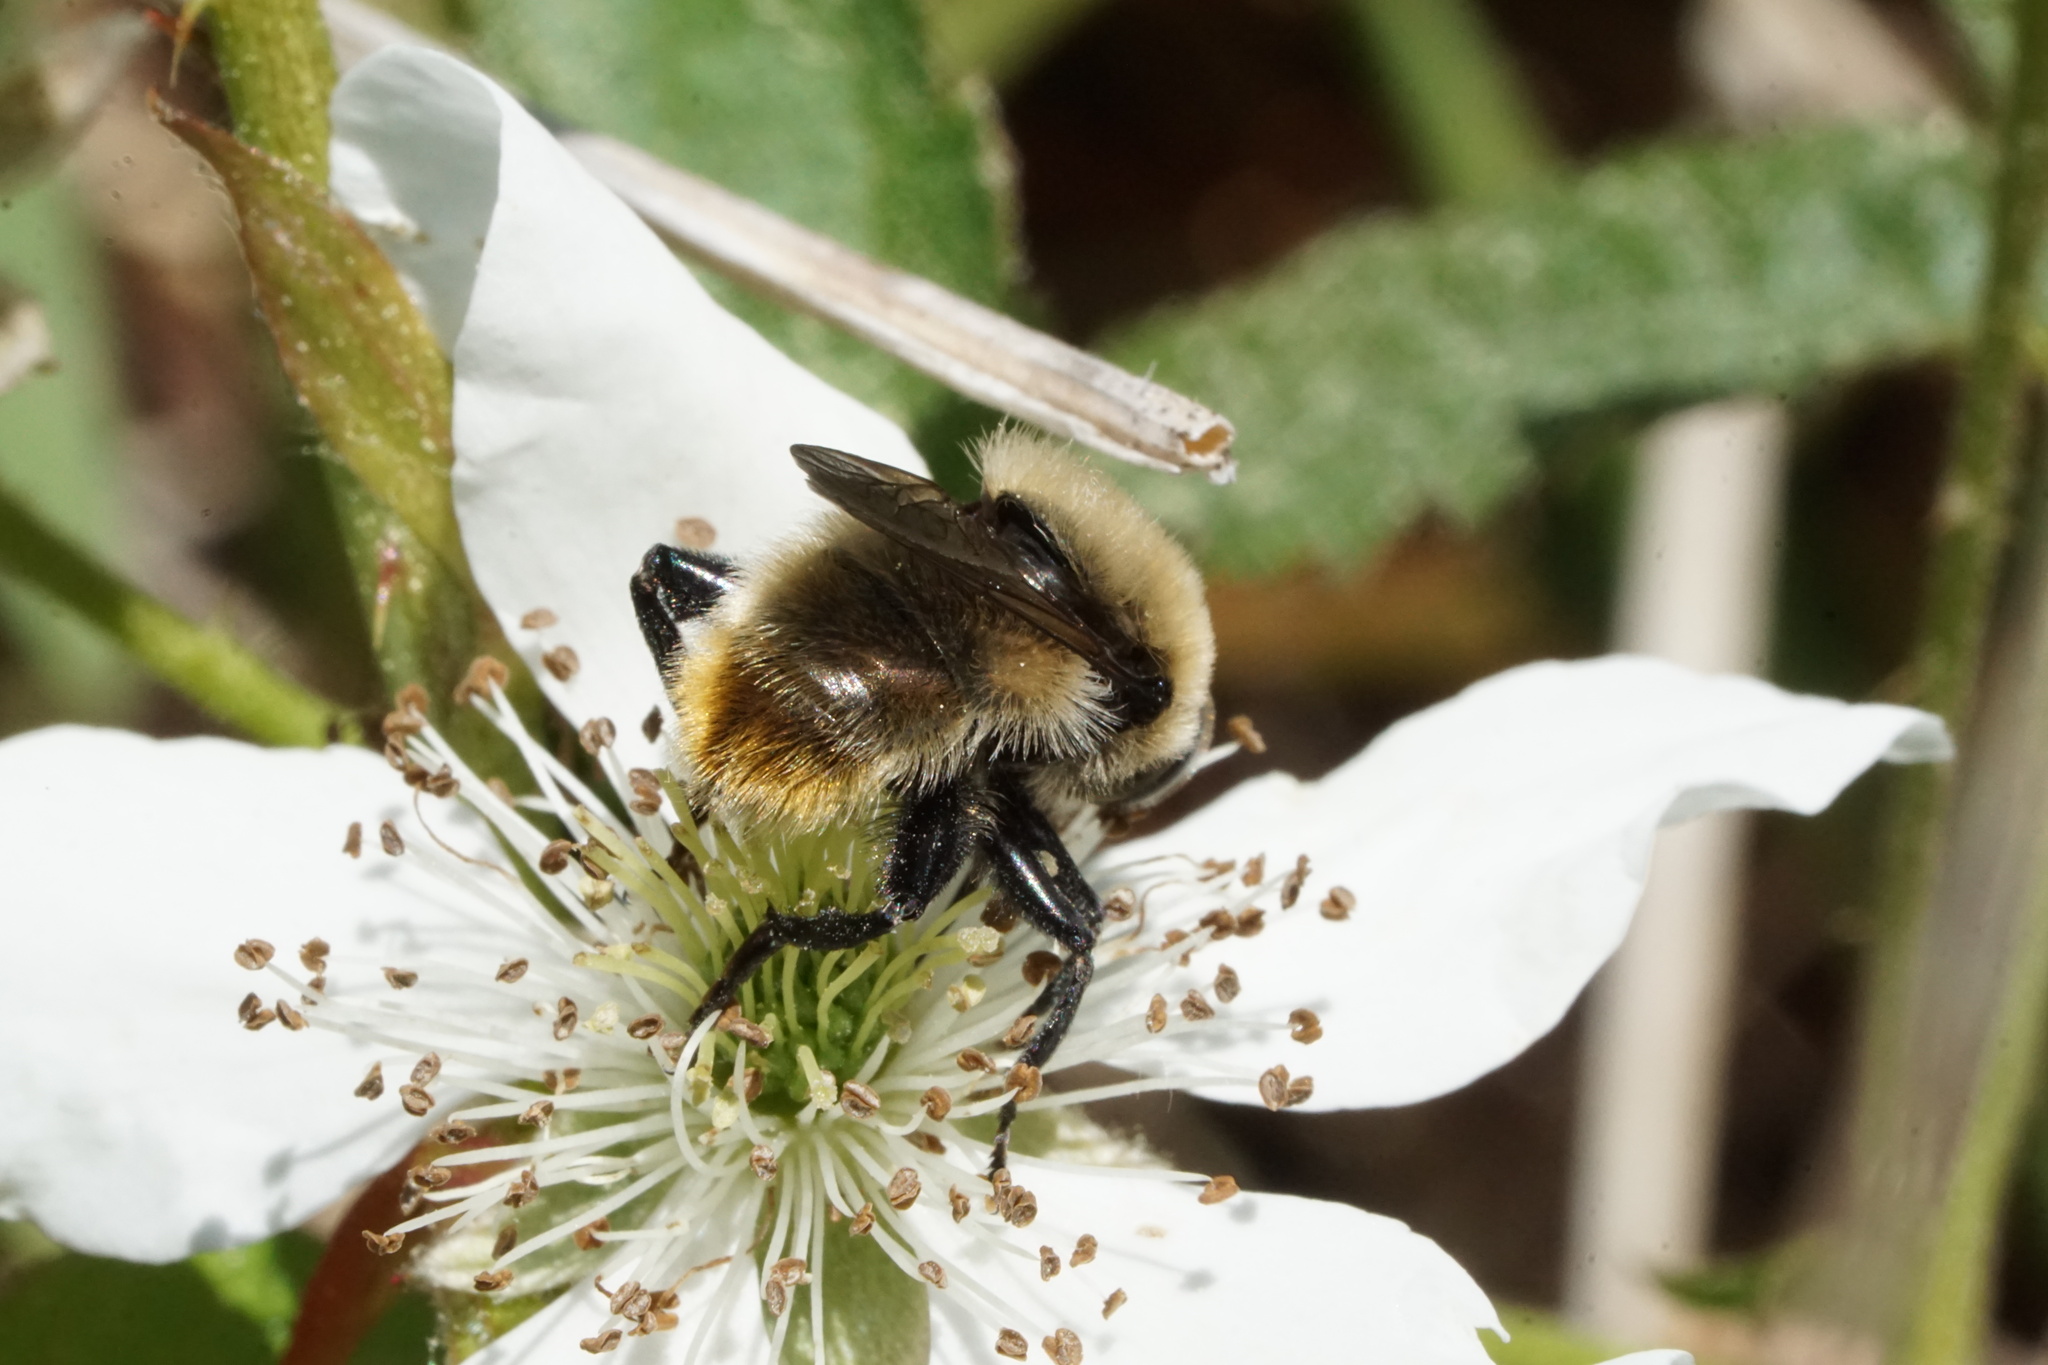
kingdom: Animalia
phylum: Arthropoda
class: Insecta
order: Diptera
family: Syrphidae
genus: Merodon
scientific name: Merodon equestris
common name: Greater bulb-fly
